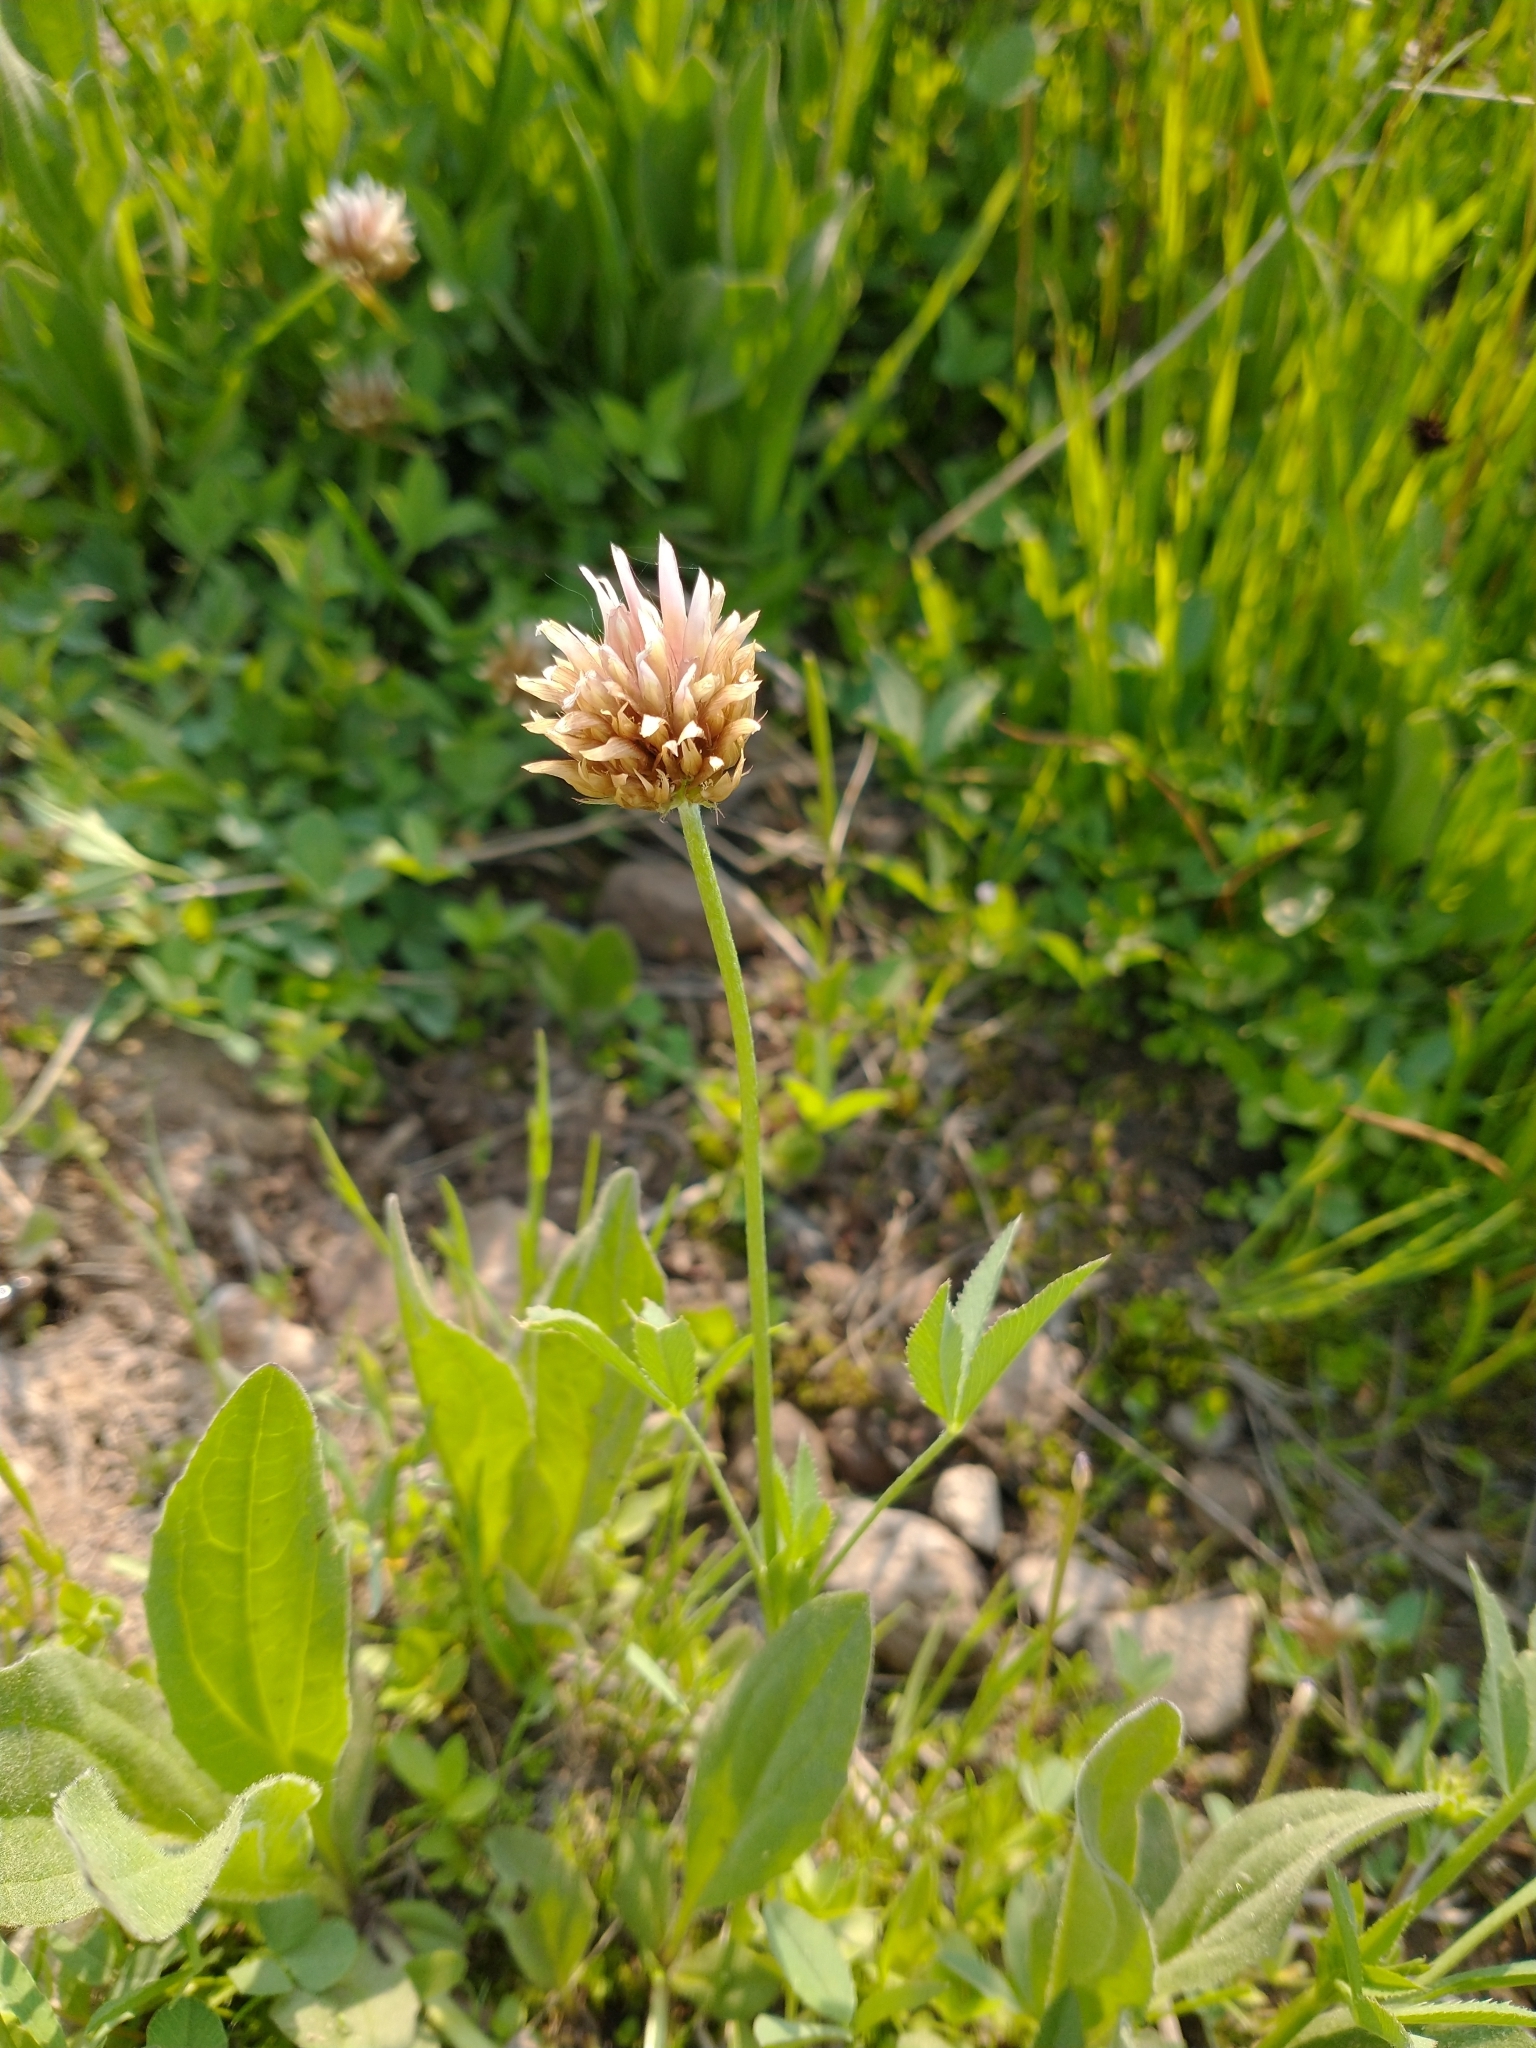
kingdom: Plantae
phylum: Tracheophyta
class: Magnoliopsida
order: Fabales
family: Fabaceae
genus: Trifolium
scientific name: Trifolium longipes
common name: Long-stalk clover
